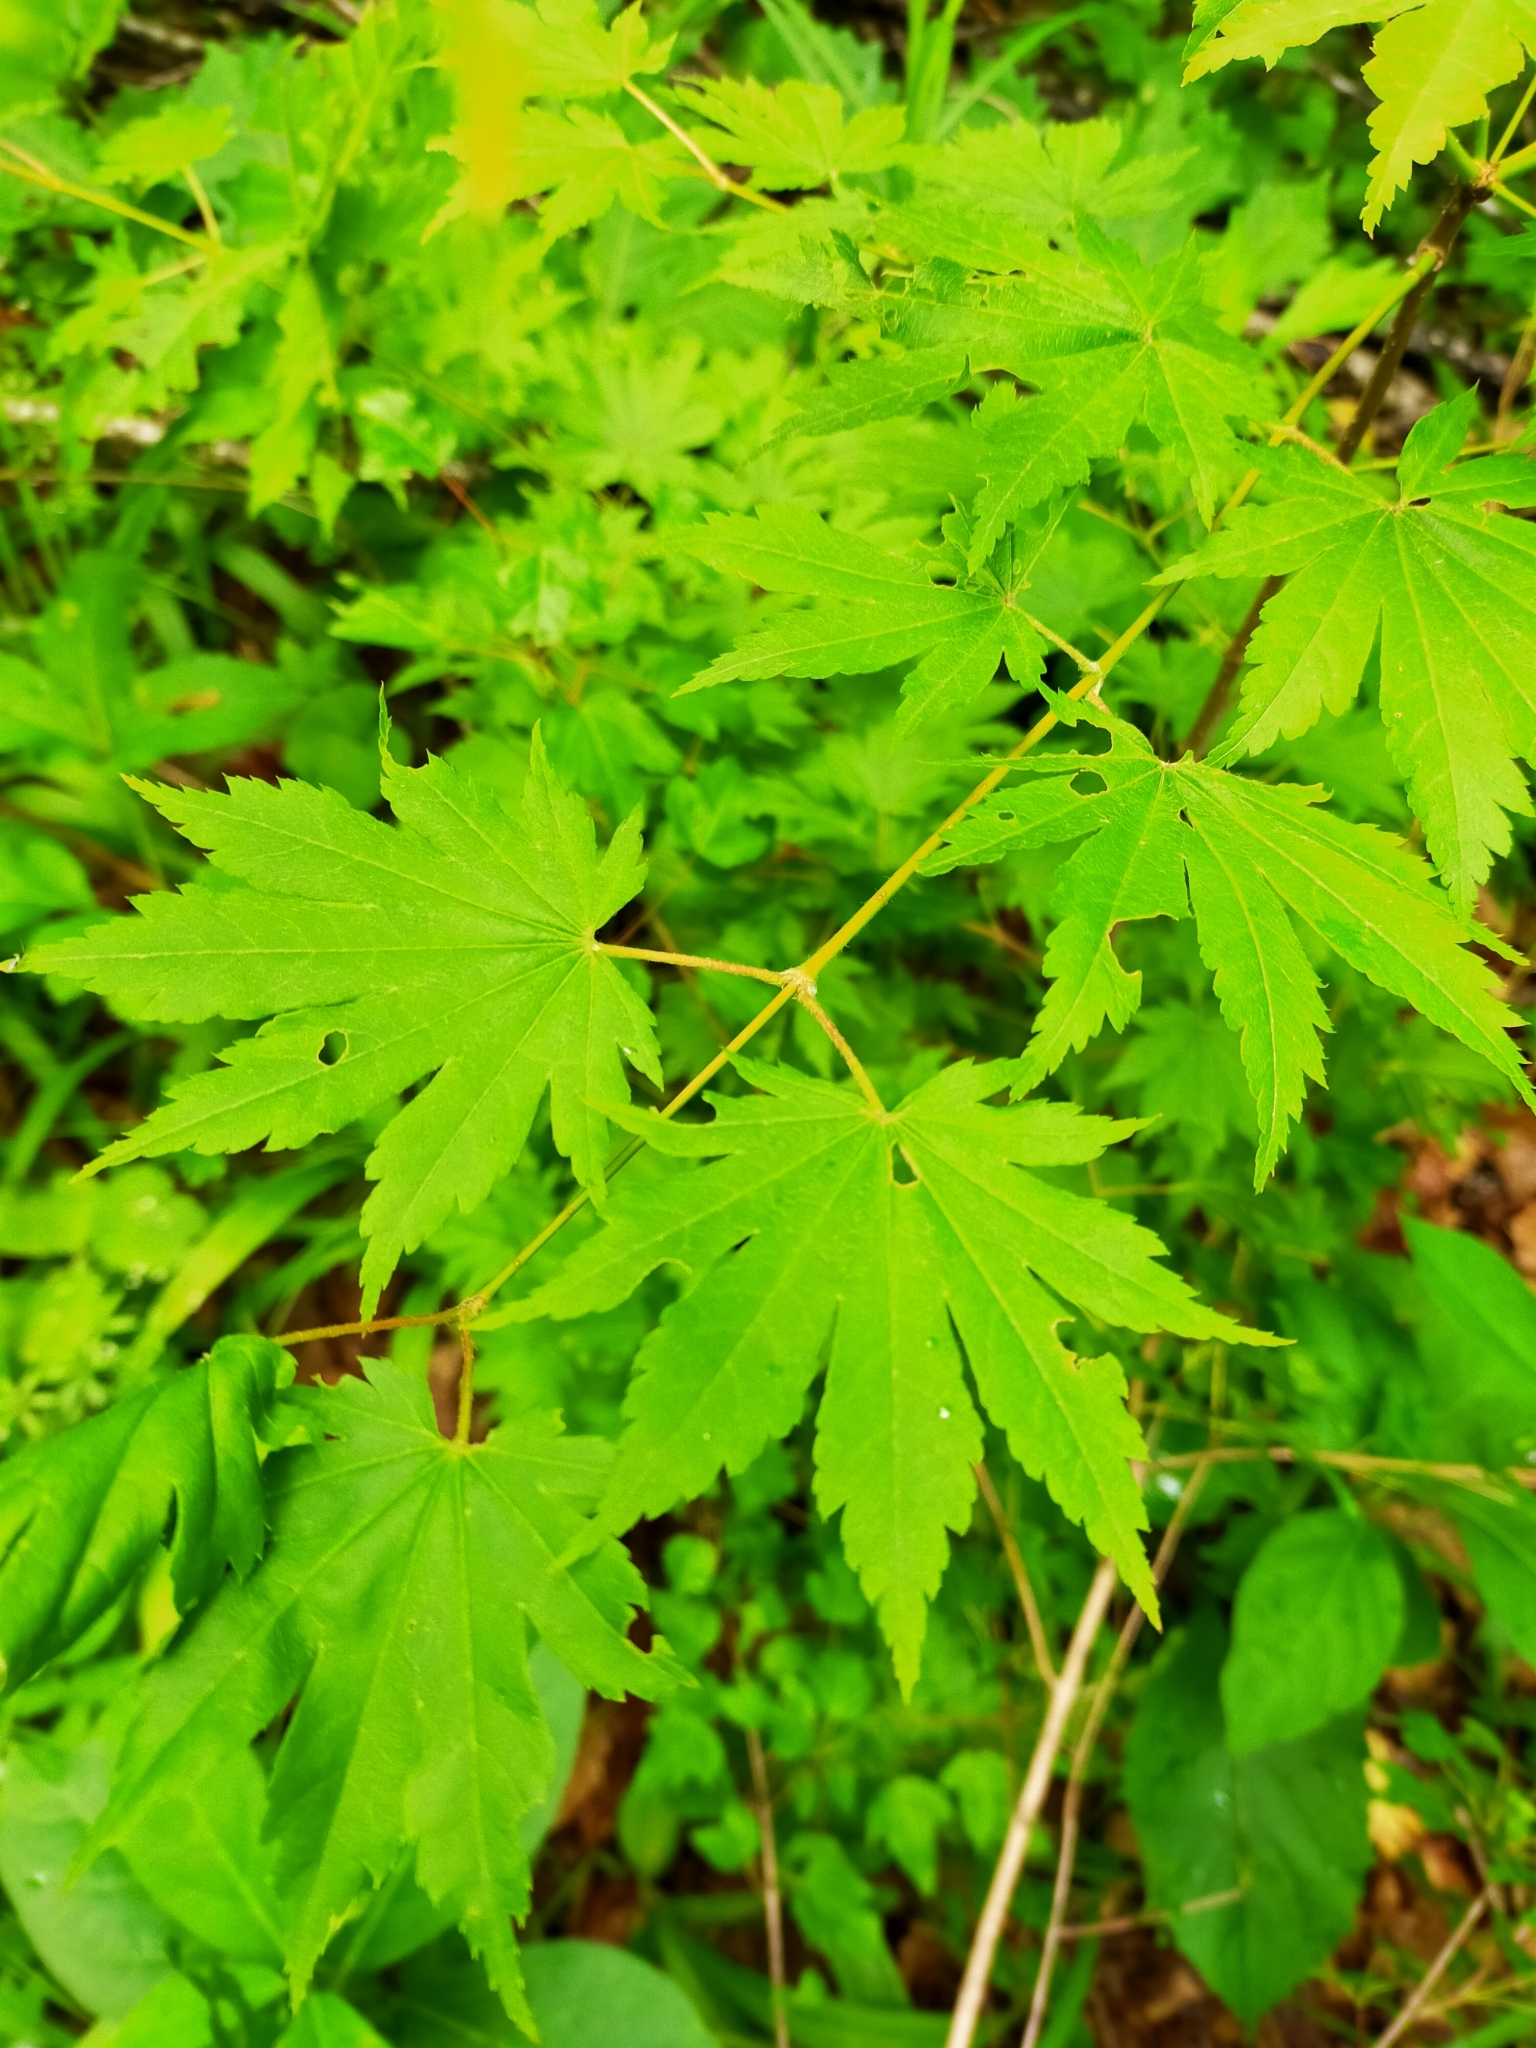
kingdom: Plantae
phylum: Tracheophyta
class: Magnoliopsida
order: Sapindales
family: Sapindaceae
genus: Acer
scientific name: Acer pseudosieboldianum
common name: Korean maple
